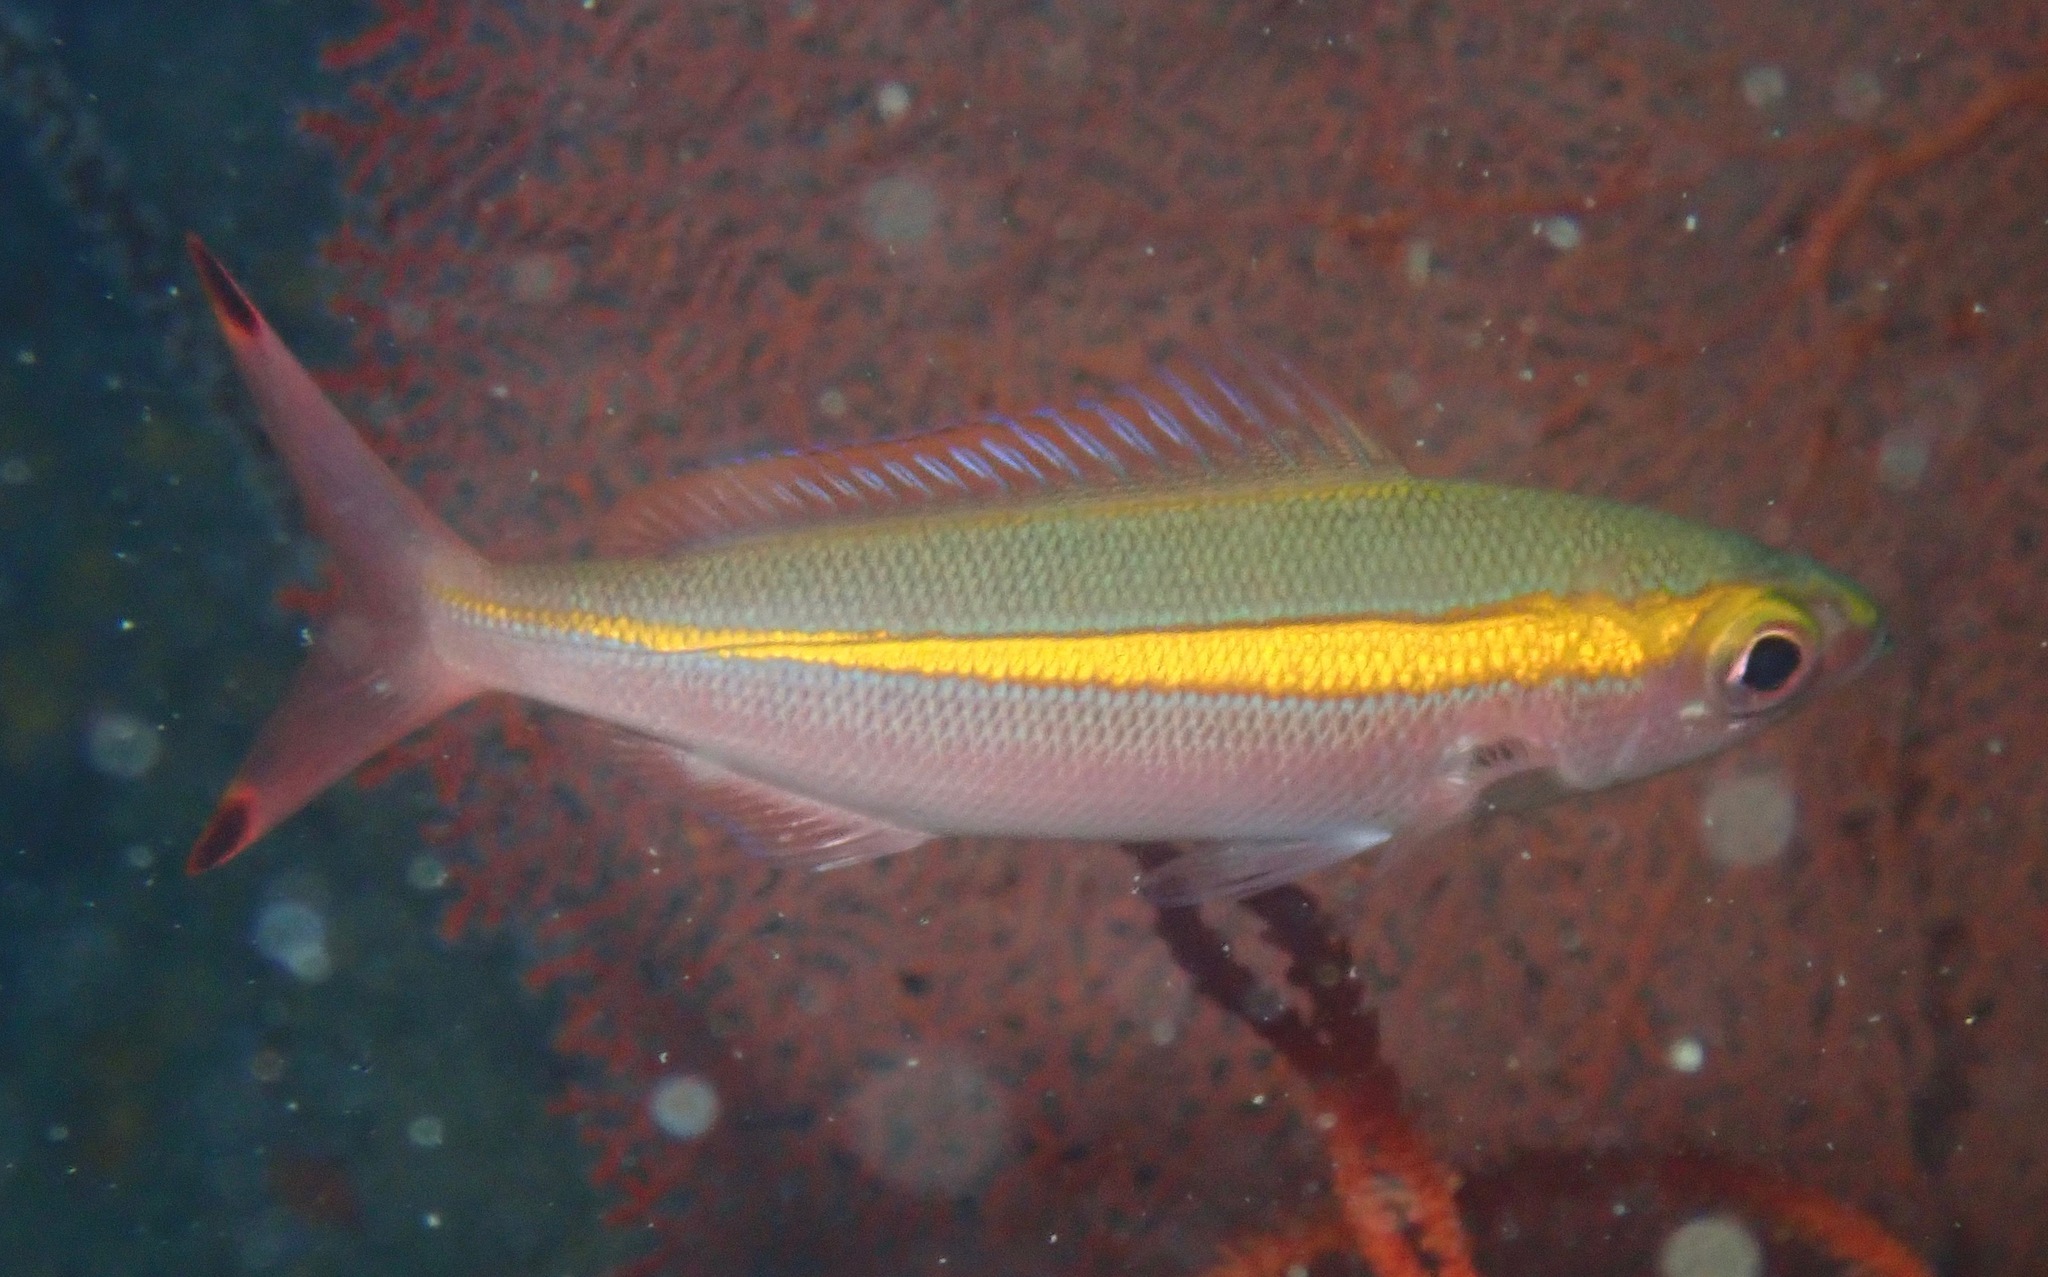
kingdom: Animalia
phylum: Chordata
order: Perciformes
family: Caesionidae
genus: Pterocaesio
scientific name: Pterocaesio chrysozona
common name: Goldband fusilier
